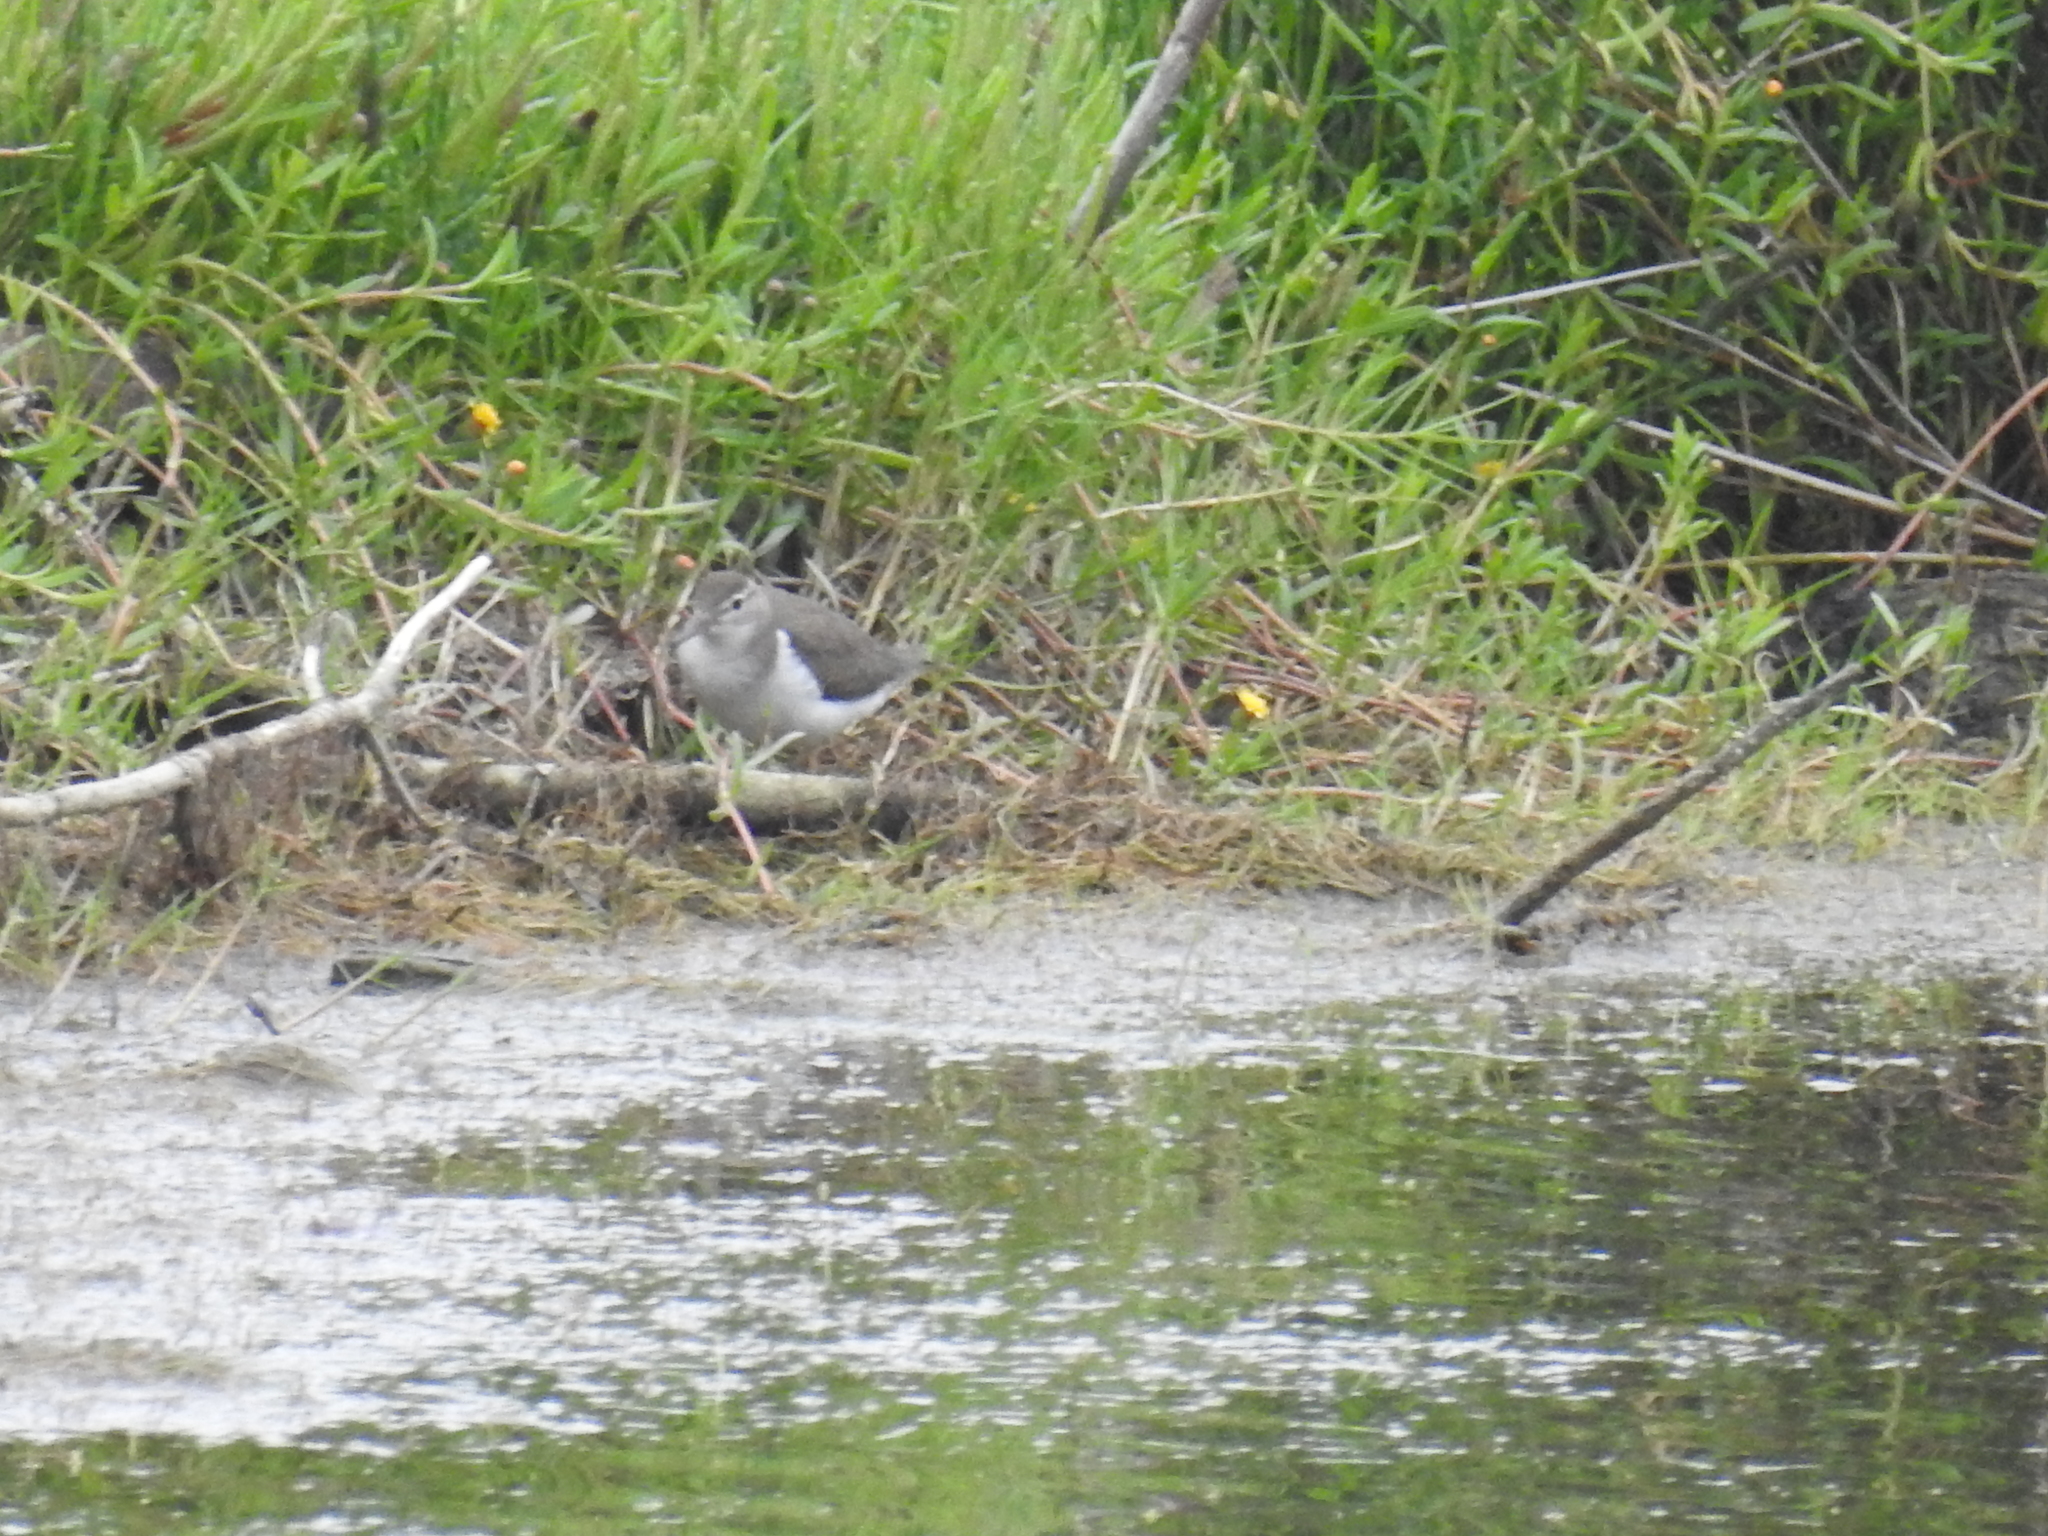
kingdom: Animalia
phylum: Chordata
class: Aves
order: Charadriiformes
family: Scolopacidae
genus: Actitis
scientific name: Actitis macularius
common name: Spotted sandpiper
